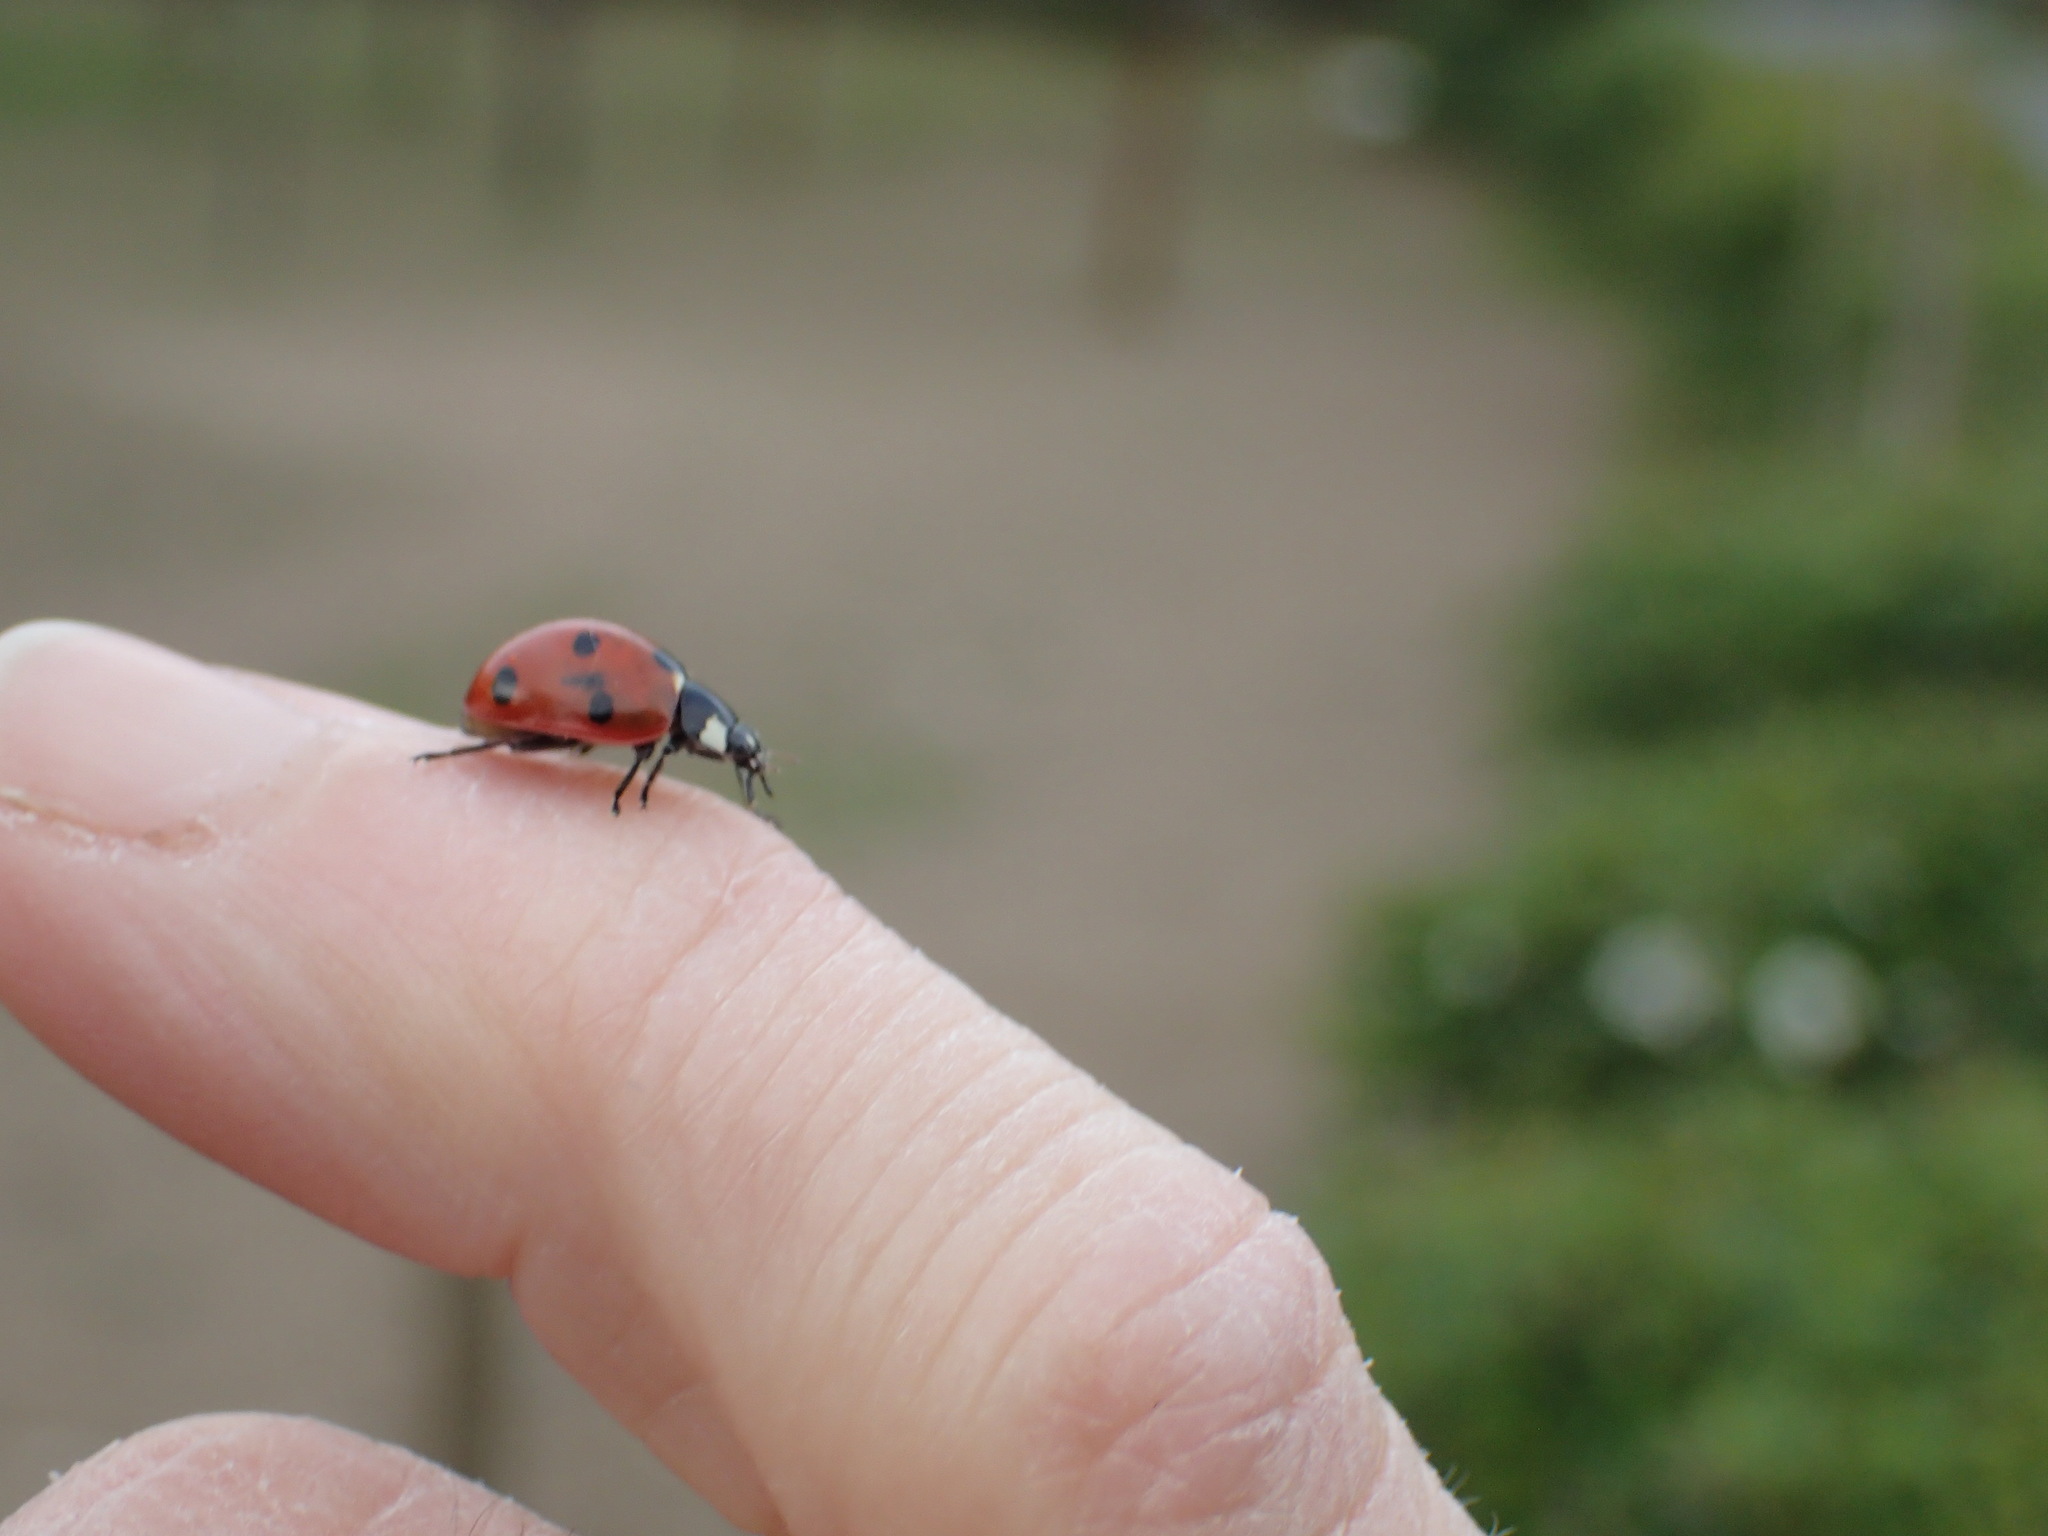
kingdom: Animalia
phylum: Arthropoda
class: Insecta
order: Coleoptera
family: Coccinellidae
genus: Coccinella
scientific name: Coccinella septempunctata
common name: Sevenspotted lady beetle
